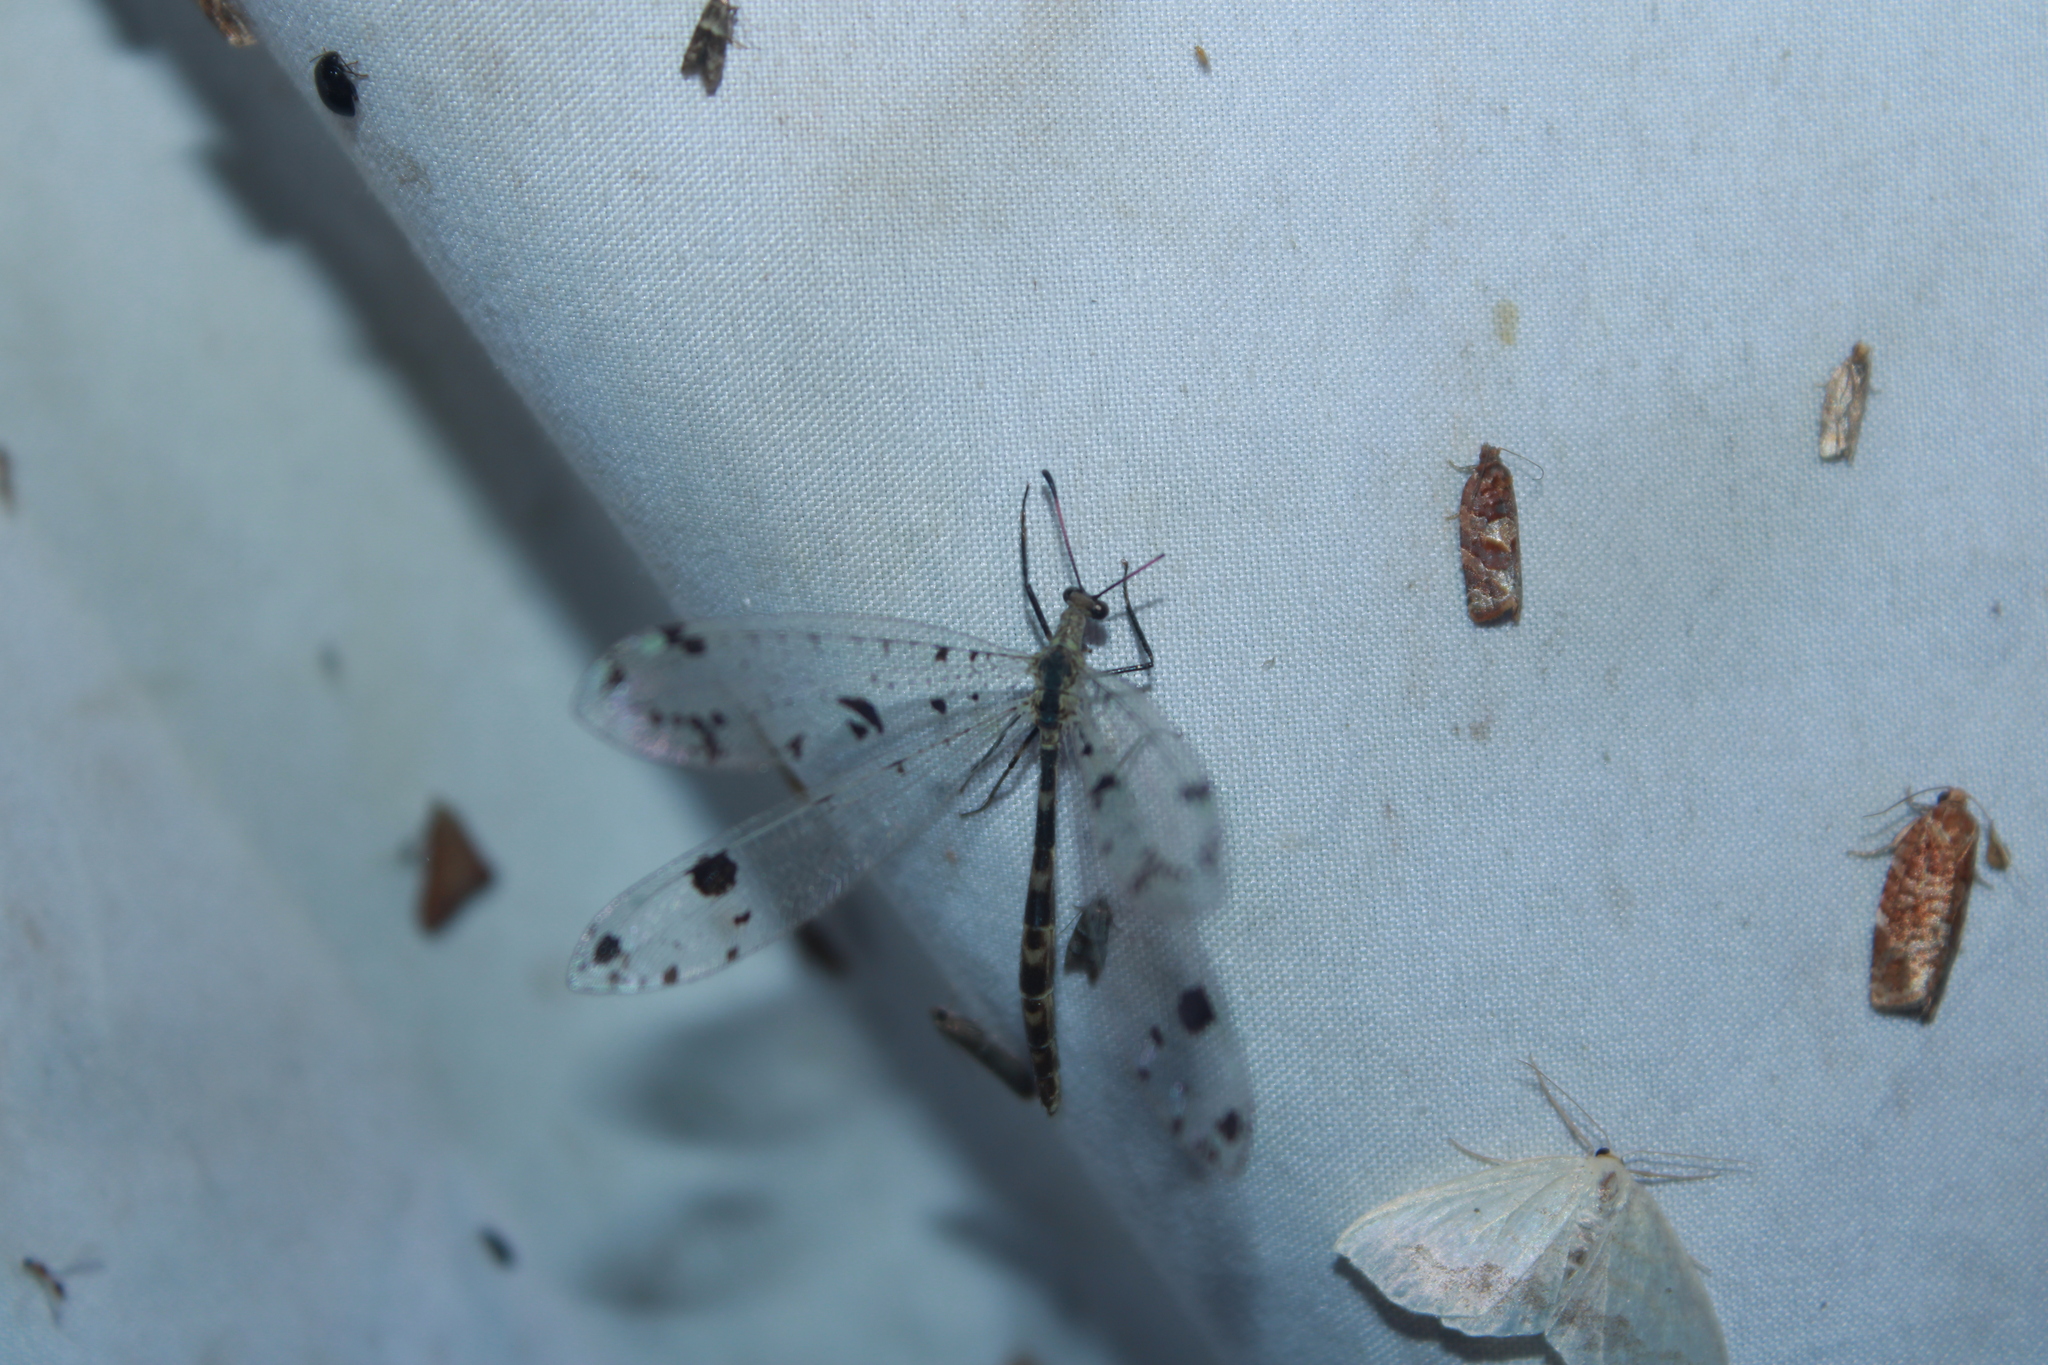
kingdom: Animalia
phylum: Arthropoda
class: Insecta
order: Neuroptera
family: Myrmeleontidae
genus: Dendroleon
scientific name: Dendroleon obsoletus
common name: Eastern spotted-winged antlion
